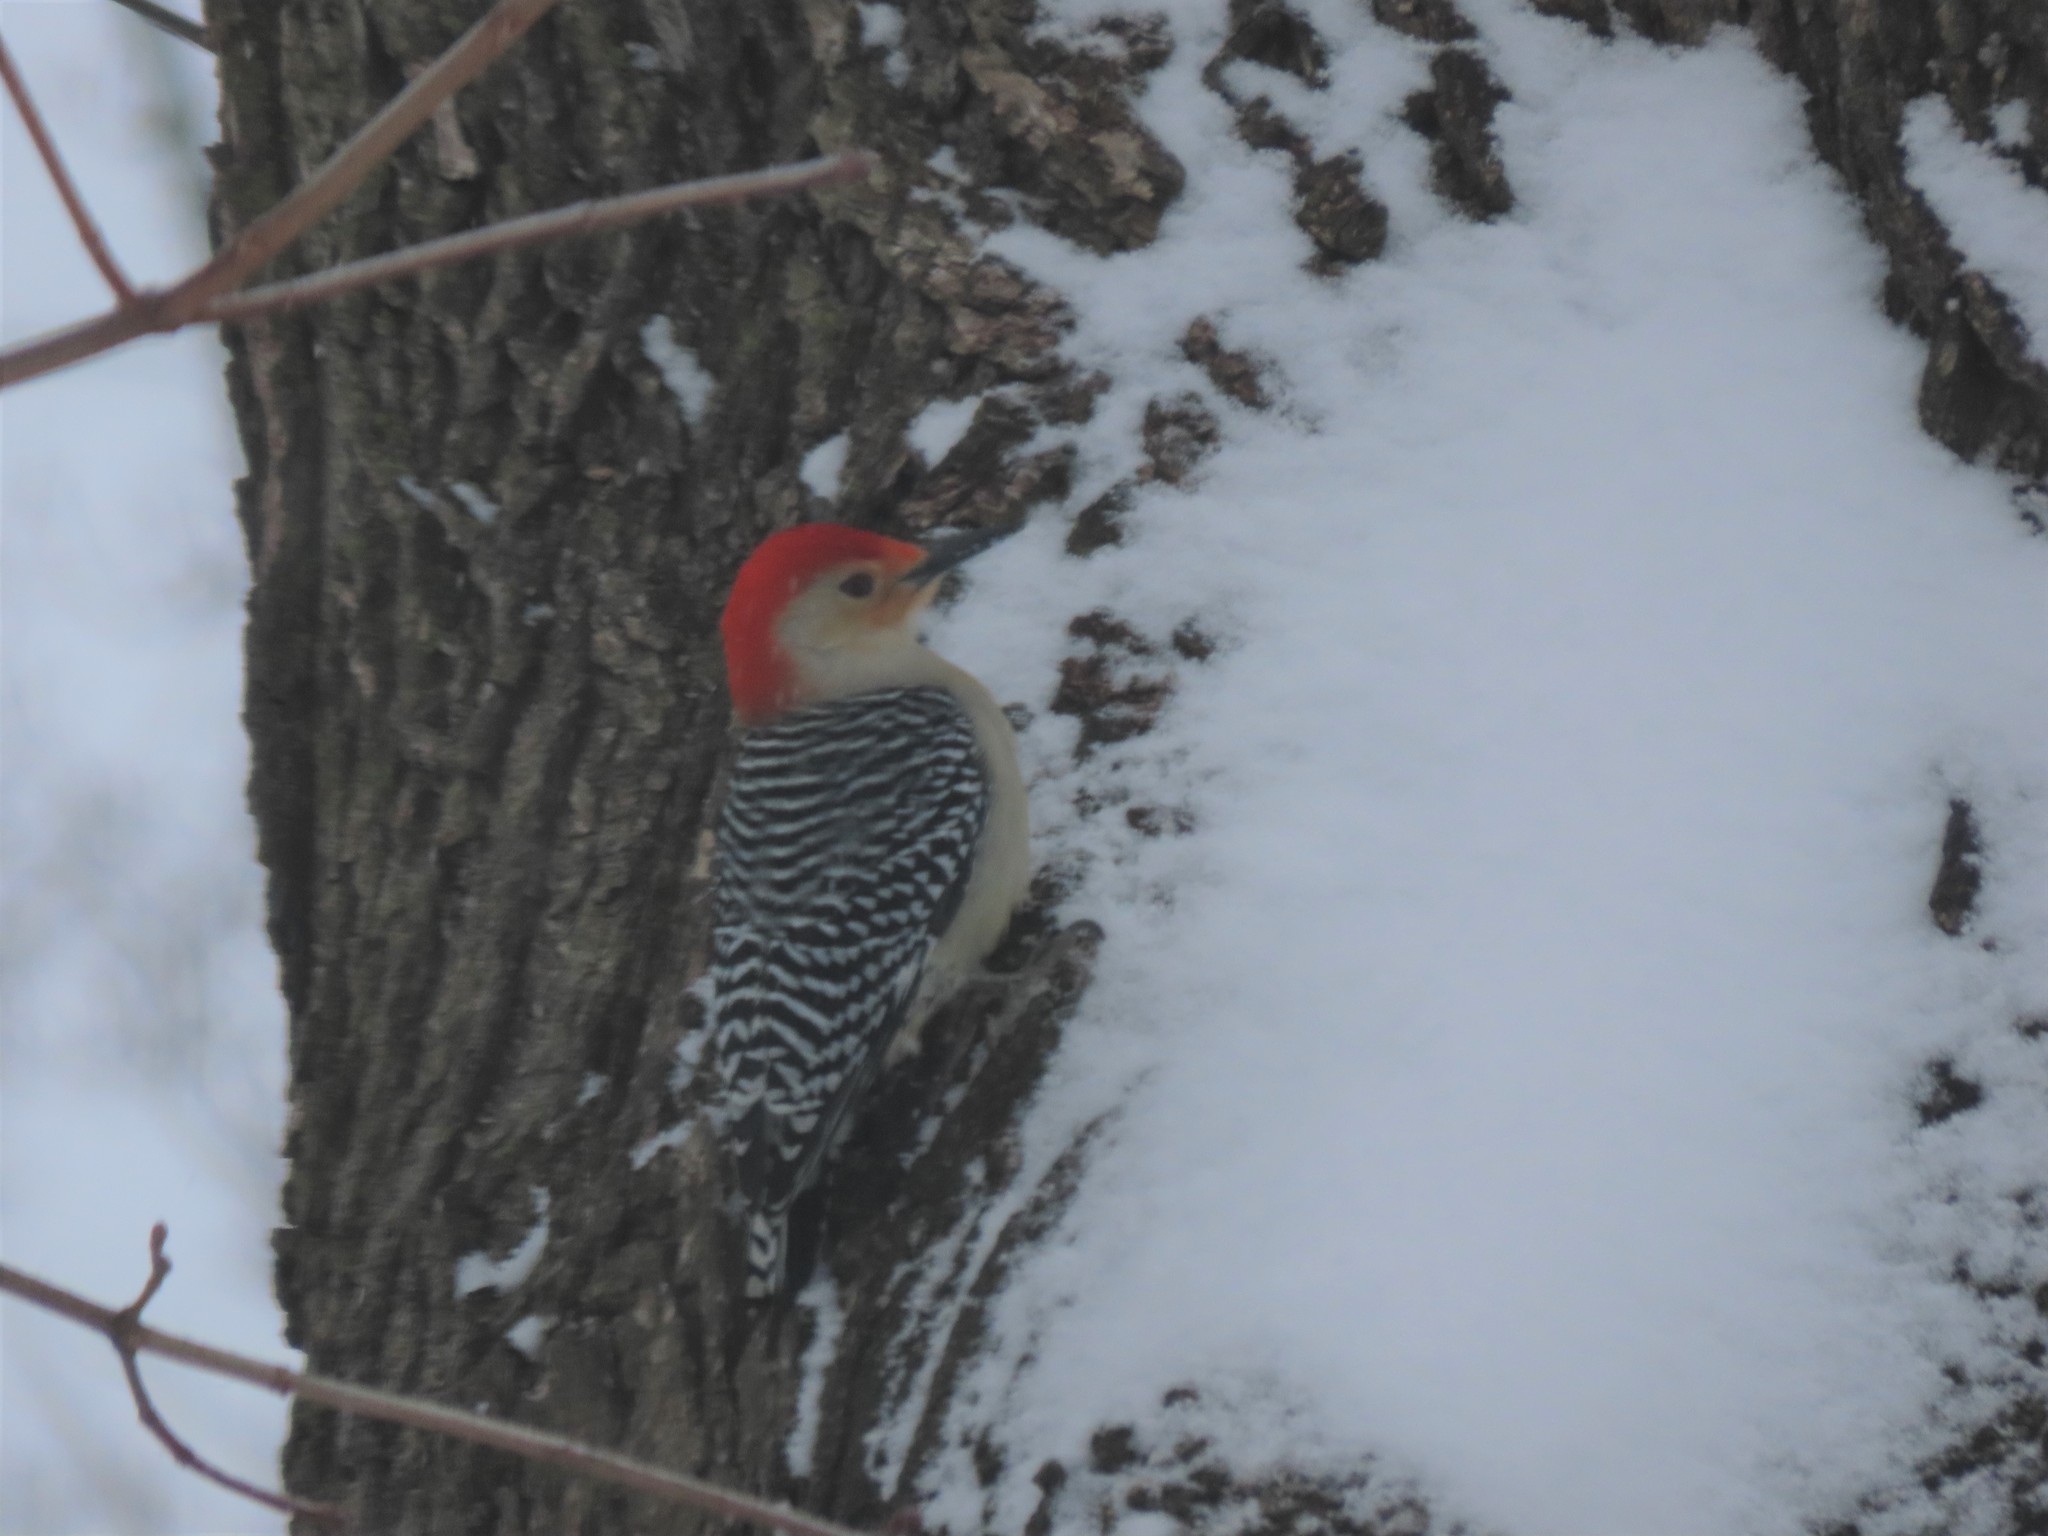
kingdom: Animalia
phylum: Chordata
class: Aves
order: Piciformes
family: Picidae
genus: Melanerpes
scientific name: Melanerpes carolinus
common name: Red-bellied woodpecker
